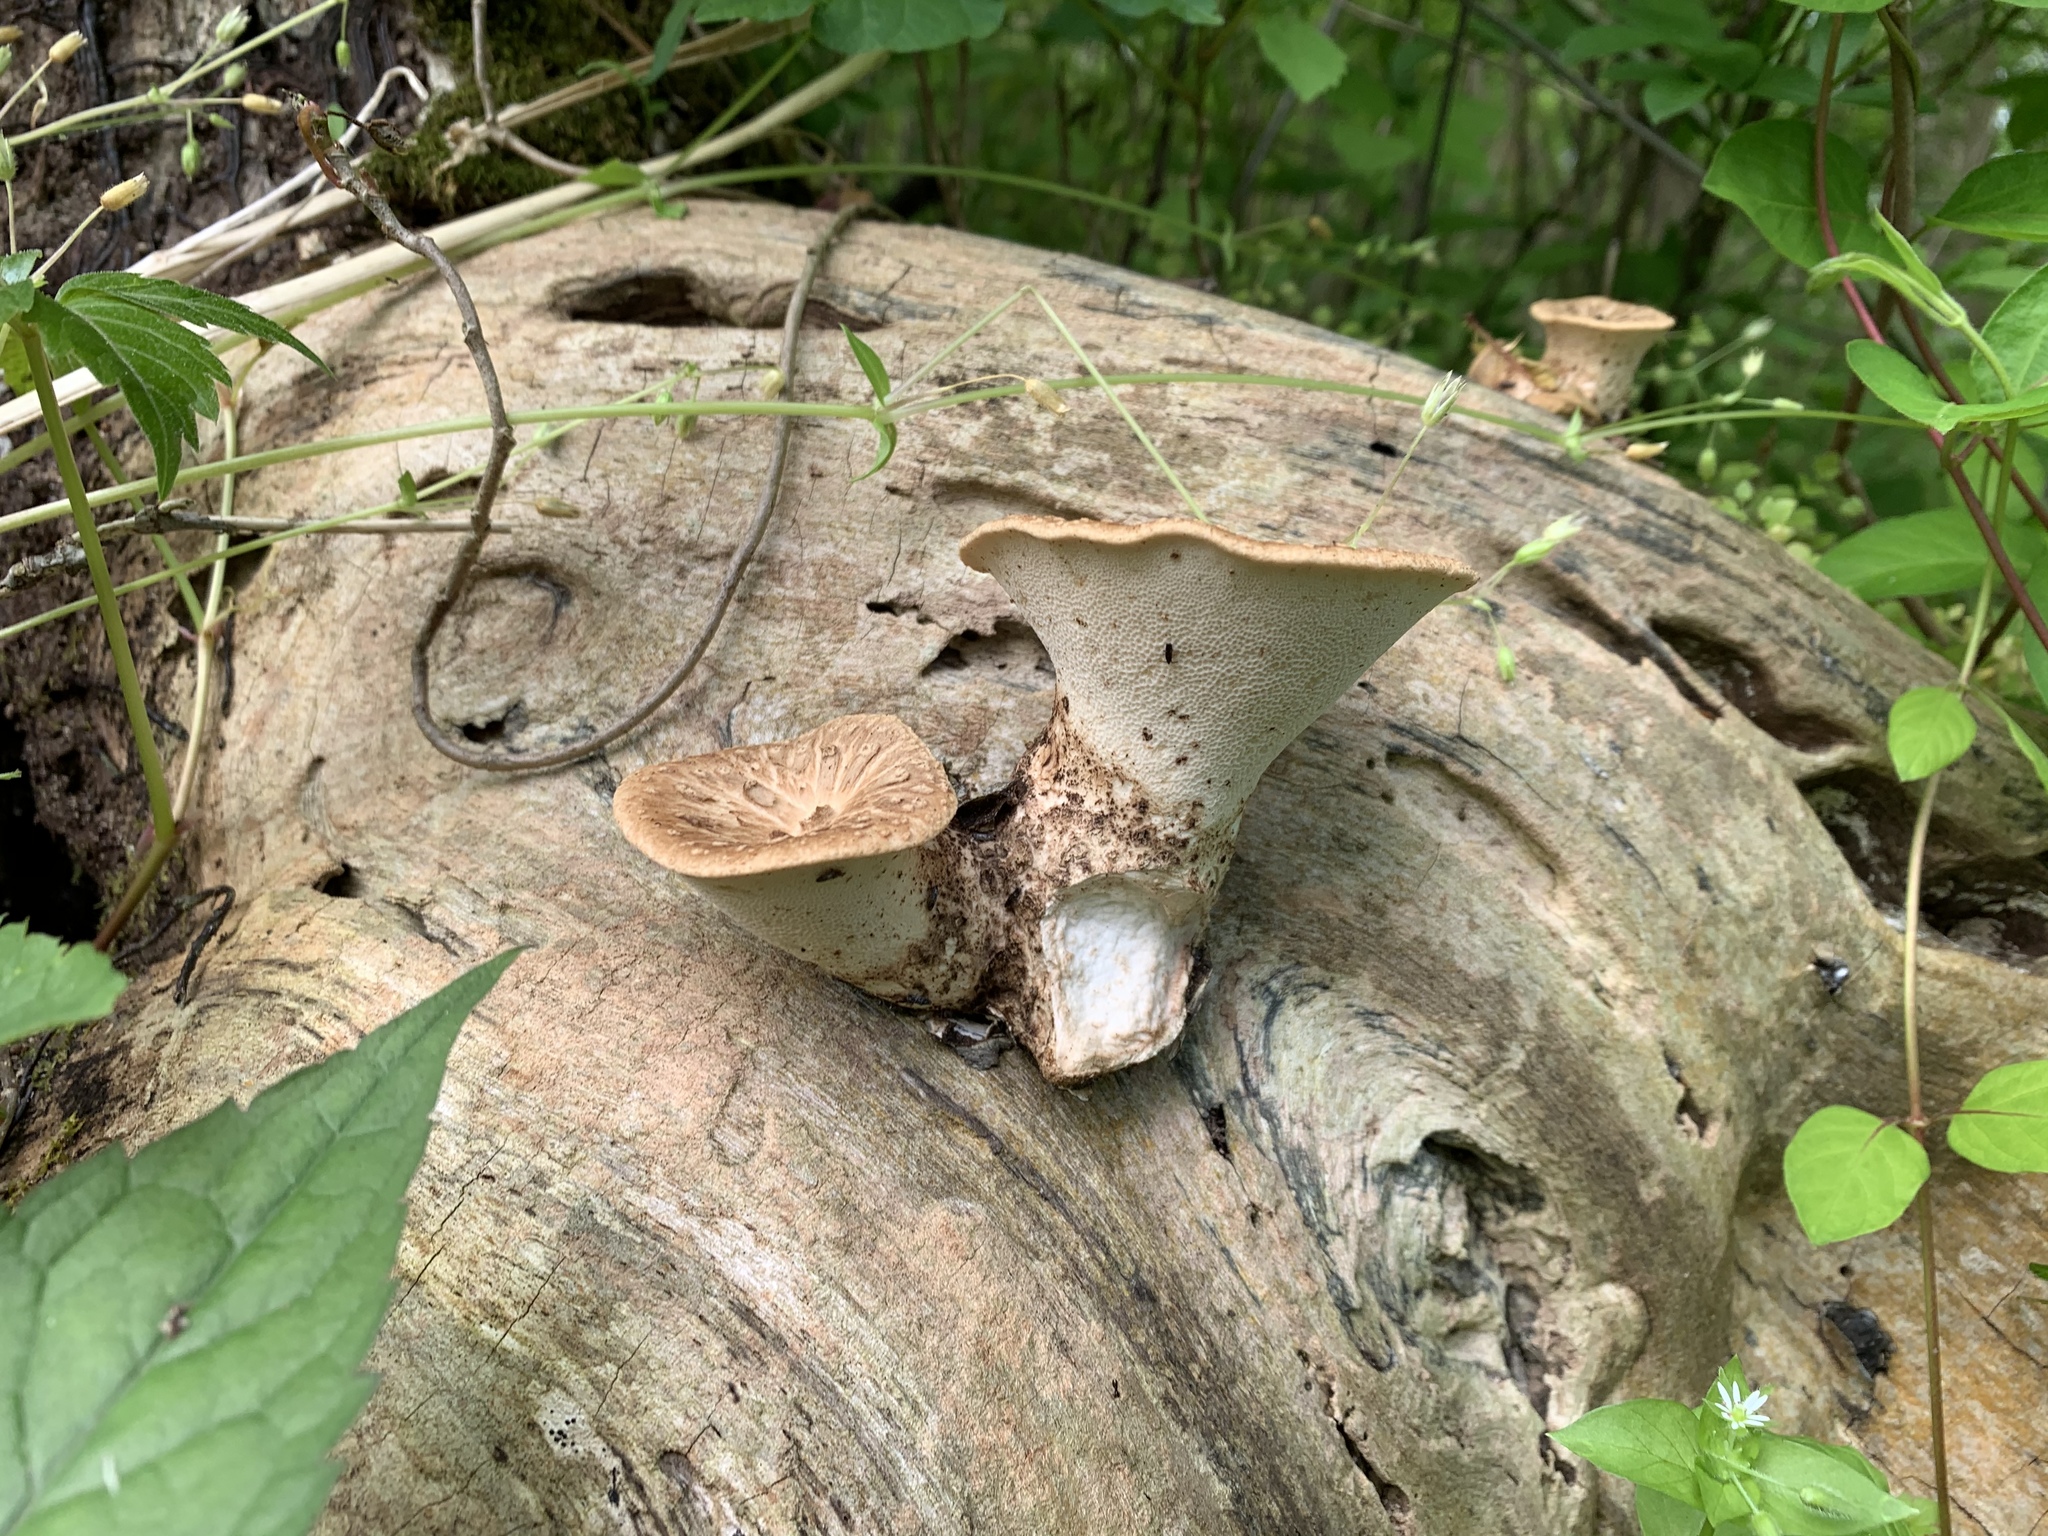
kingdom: Fungi
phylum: Basidiomycota
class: Agaricomycetes
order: Polyporales
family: Polyporaceae
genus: Cerioporus
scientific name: Cerioporus squamosus
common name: Dryad's saddle
